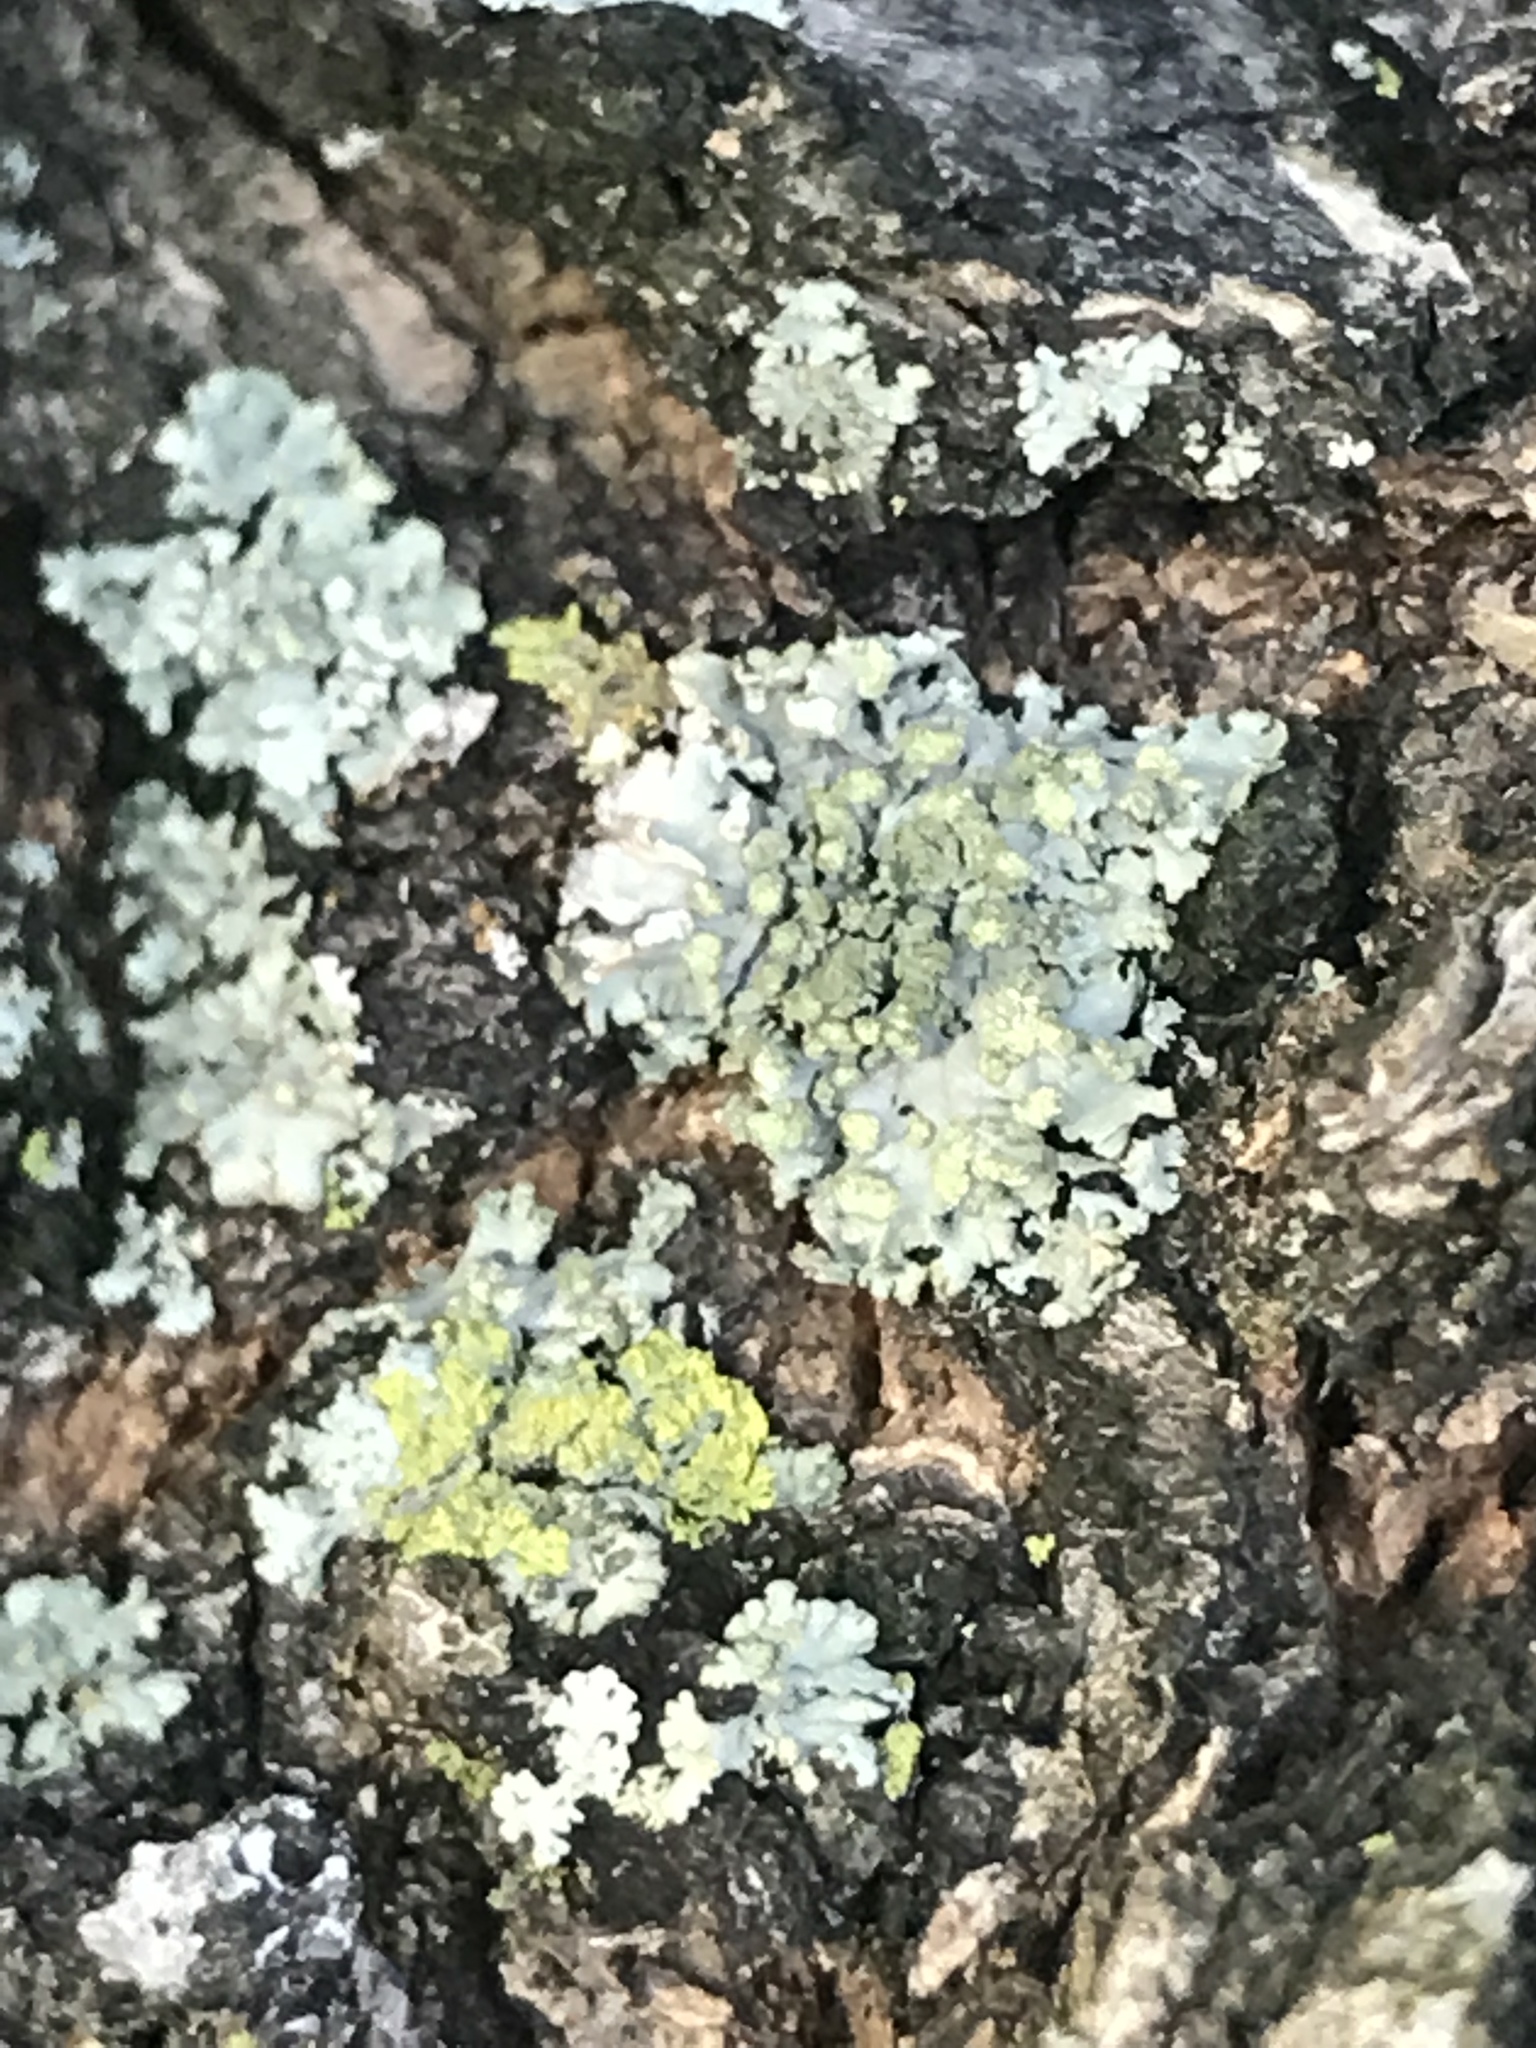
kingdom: Fungi
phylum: Ascomycota
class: Lecanoromycetes
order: Caliciales
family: Physciaceae
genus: Phaeophyscia
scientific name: Phaeophyscia rubropulchra
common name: Orange-cored shadow lichen
